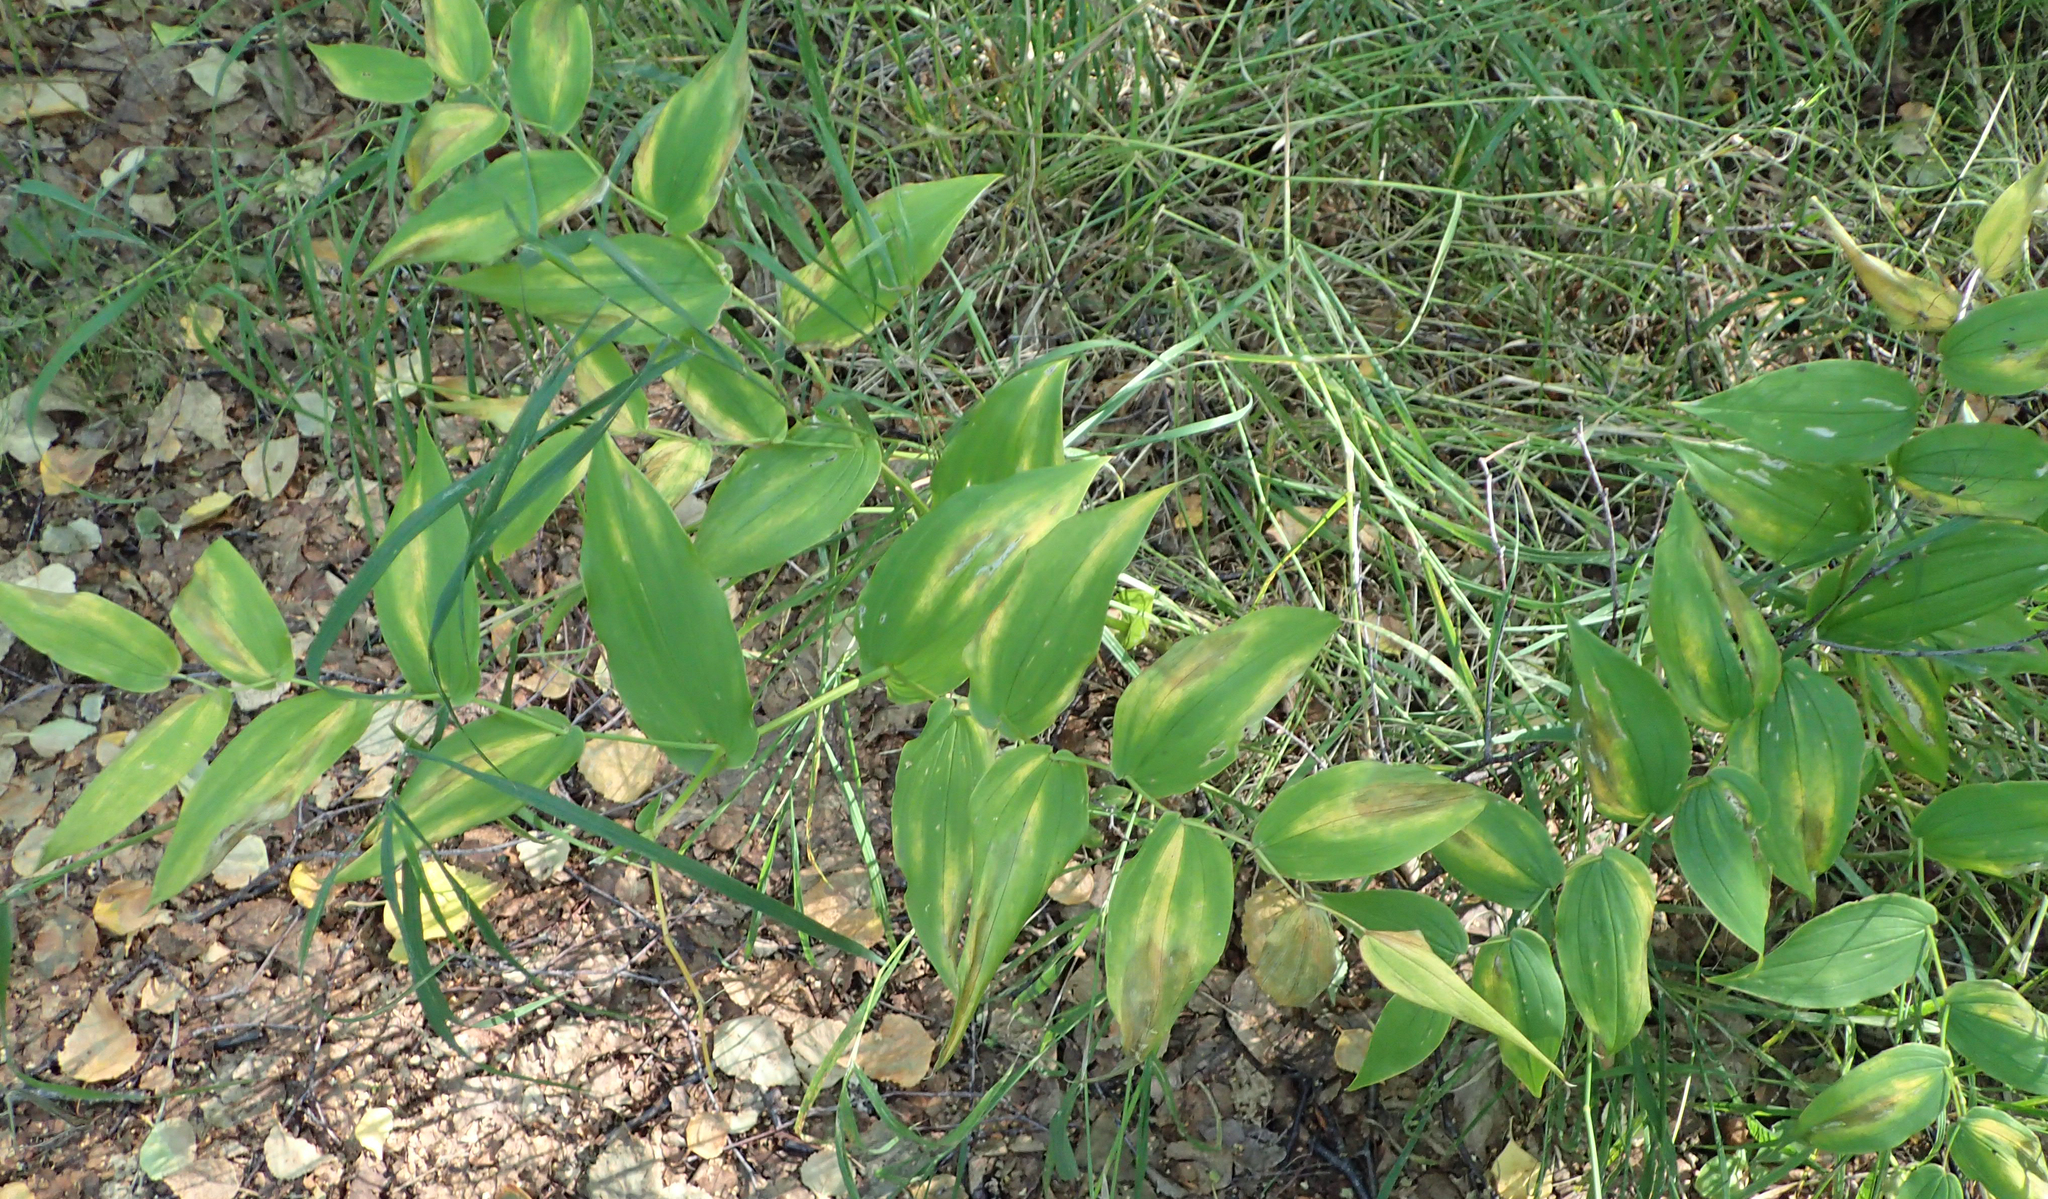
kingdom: Plantae
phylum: Tracheophyta
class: Liliopsida
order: Liliales
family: Liliaceae
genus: Streptopus
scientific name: Streptopus amplexifolius
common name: Clasp twisted stalk
